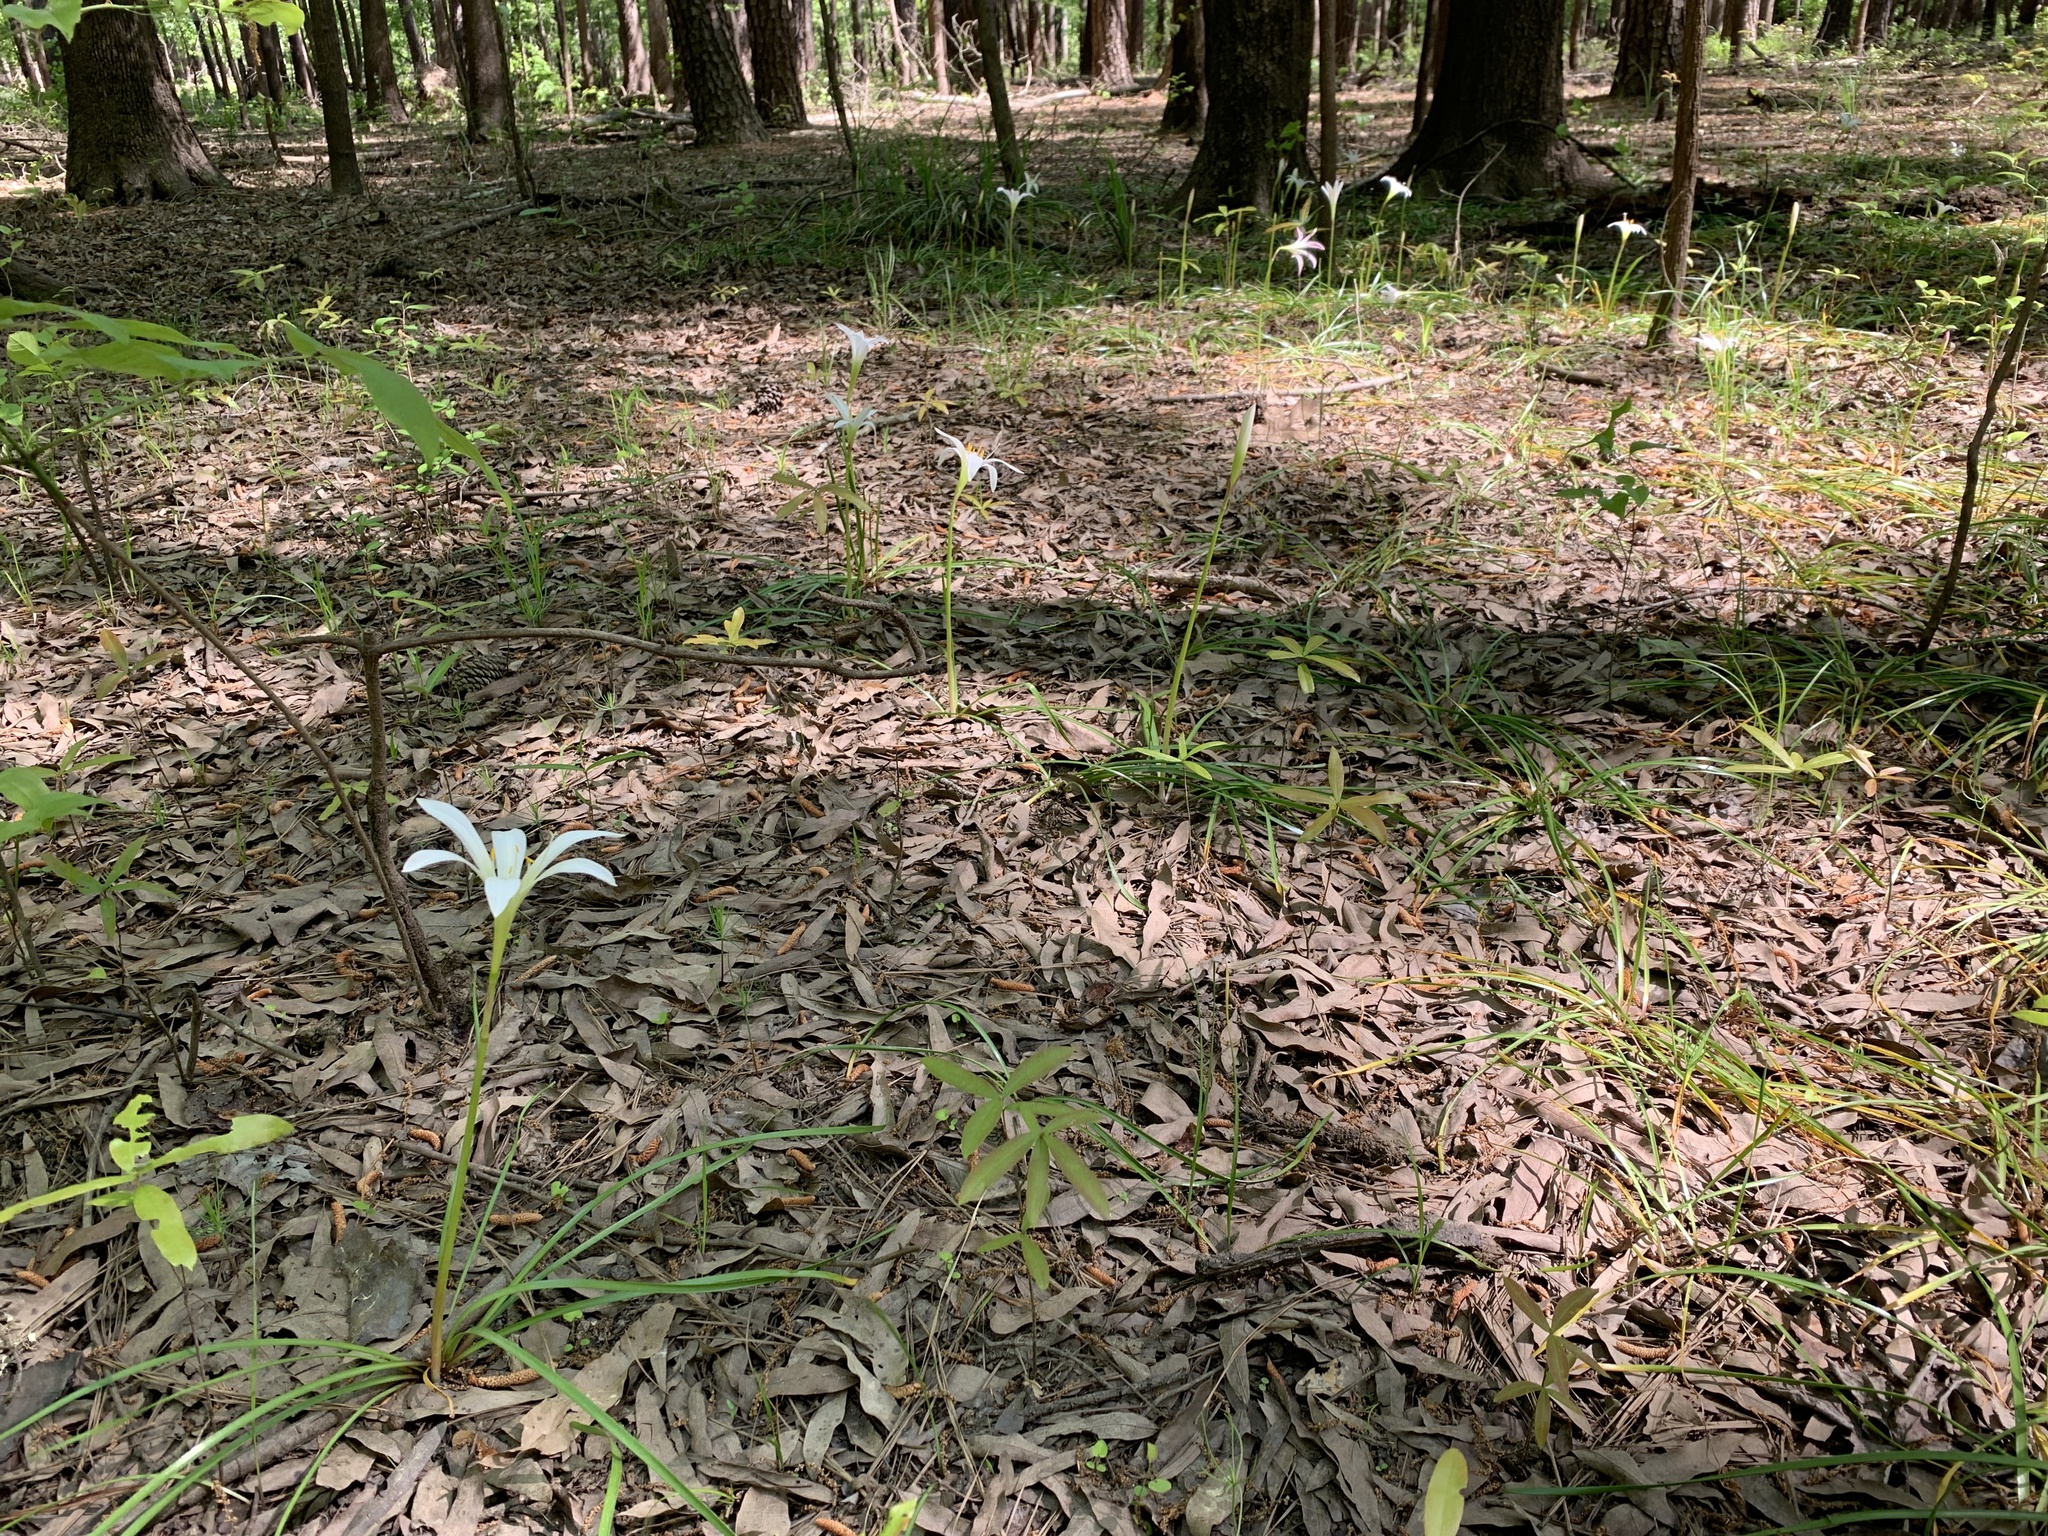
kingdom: Plantae
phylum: Tracheophyta
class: Liliopsida
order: Asparagales
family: Amaryllidaceae
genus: Zephyranthes
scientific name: Zephyranthes atamasco
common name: Atamasco lily
